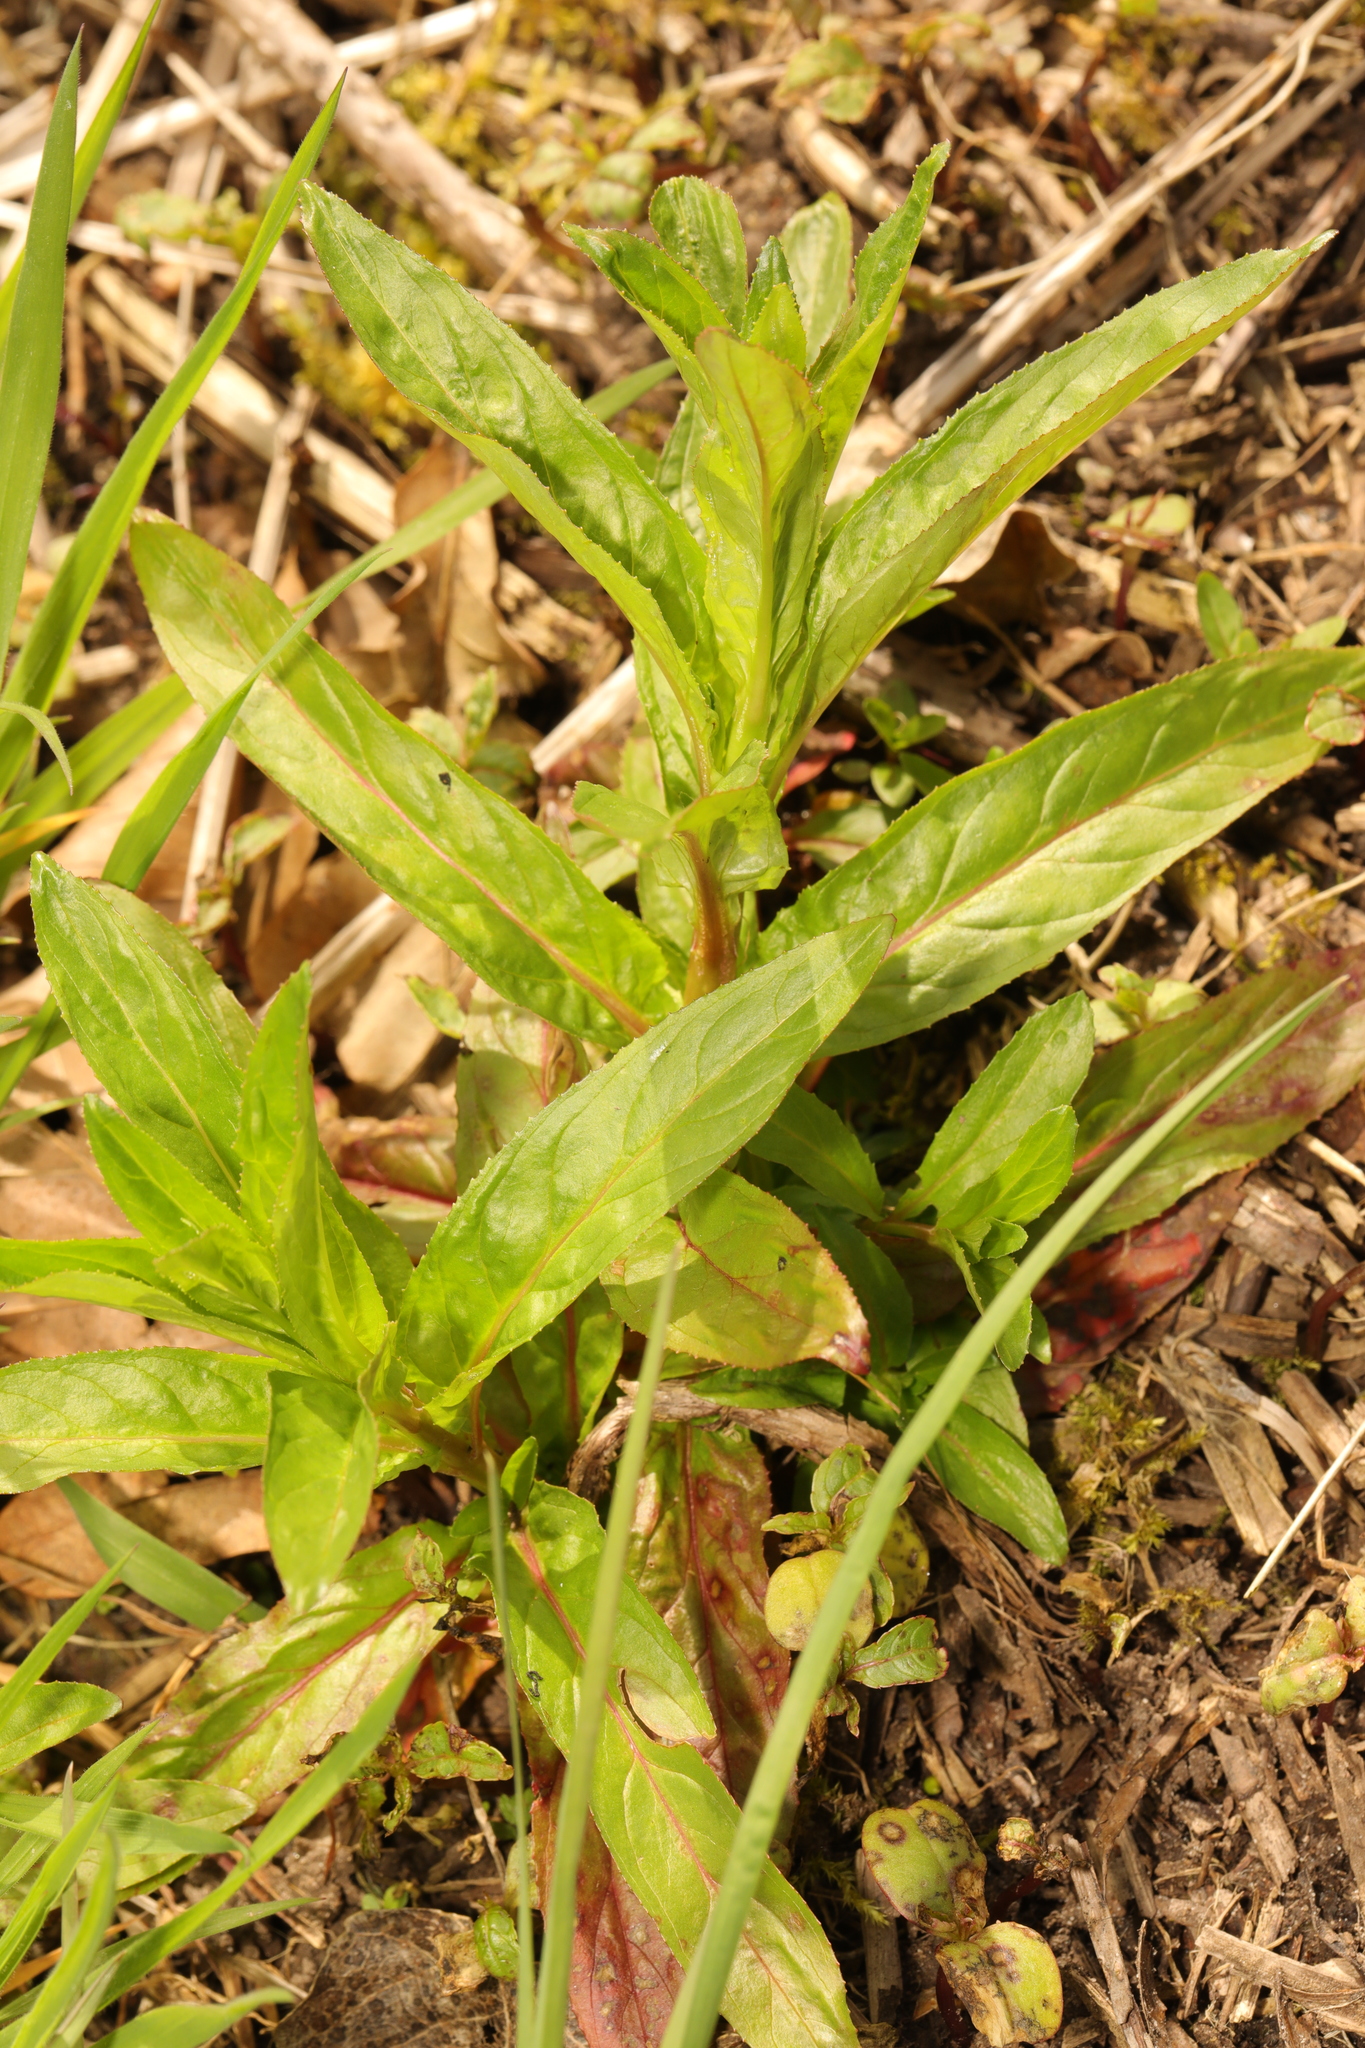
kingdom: Plantae
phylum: Tracheophyta
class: Magnoliopsida
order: Myrtales
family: Onagraceae
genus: Epilobium
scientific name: Epilobium
